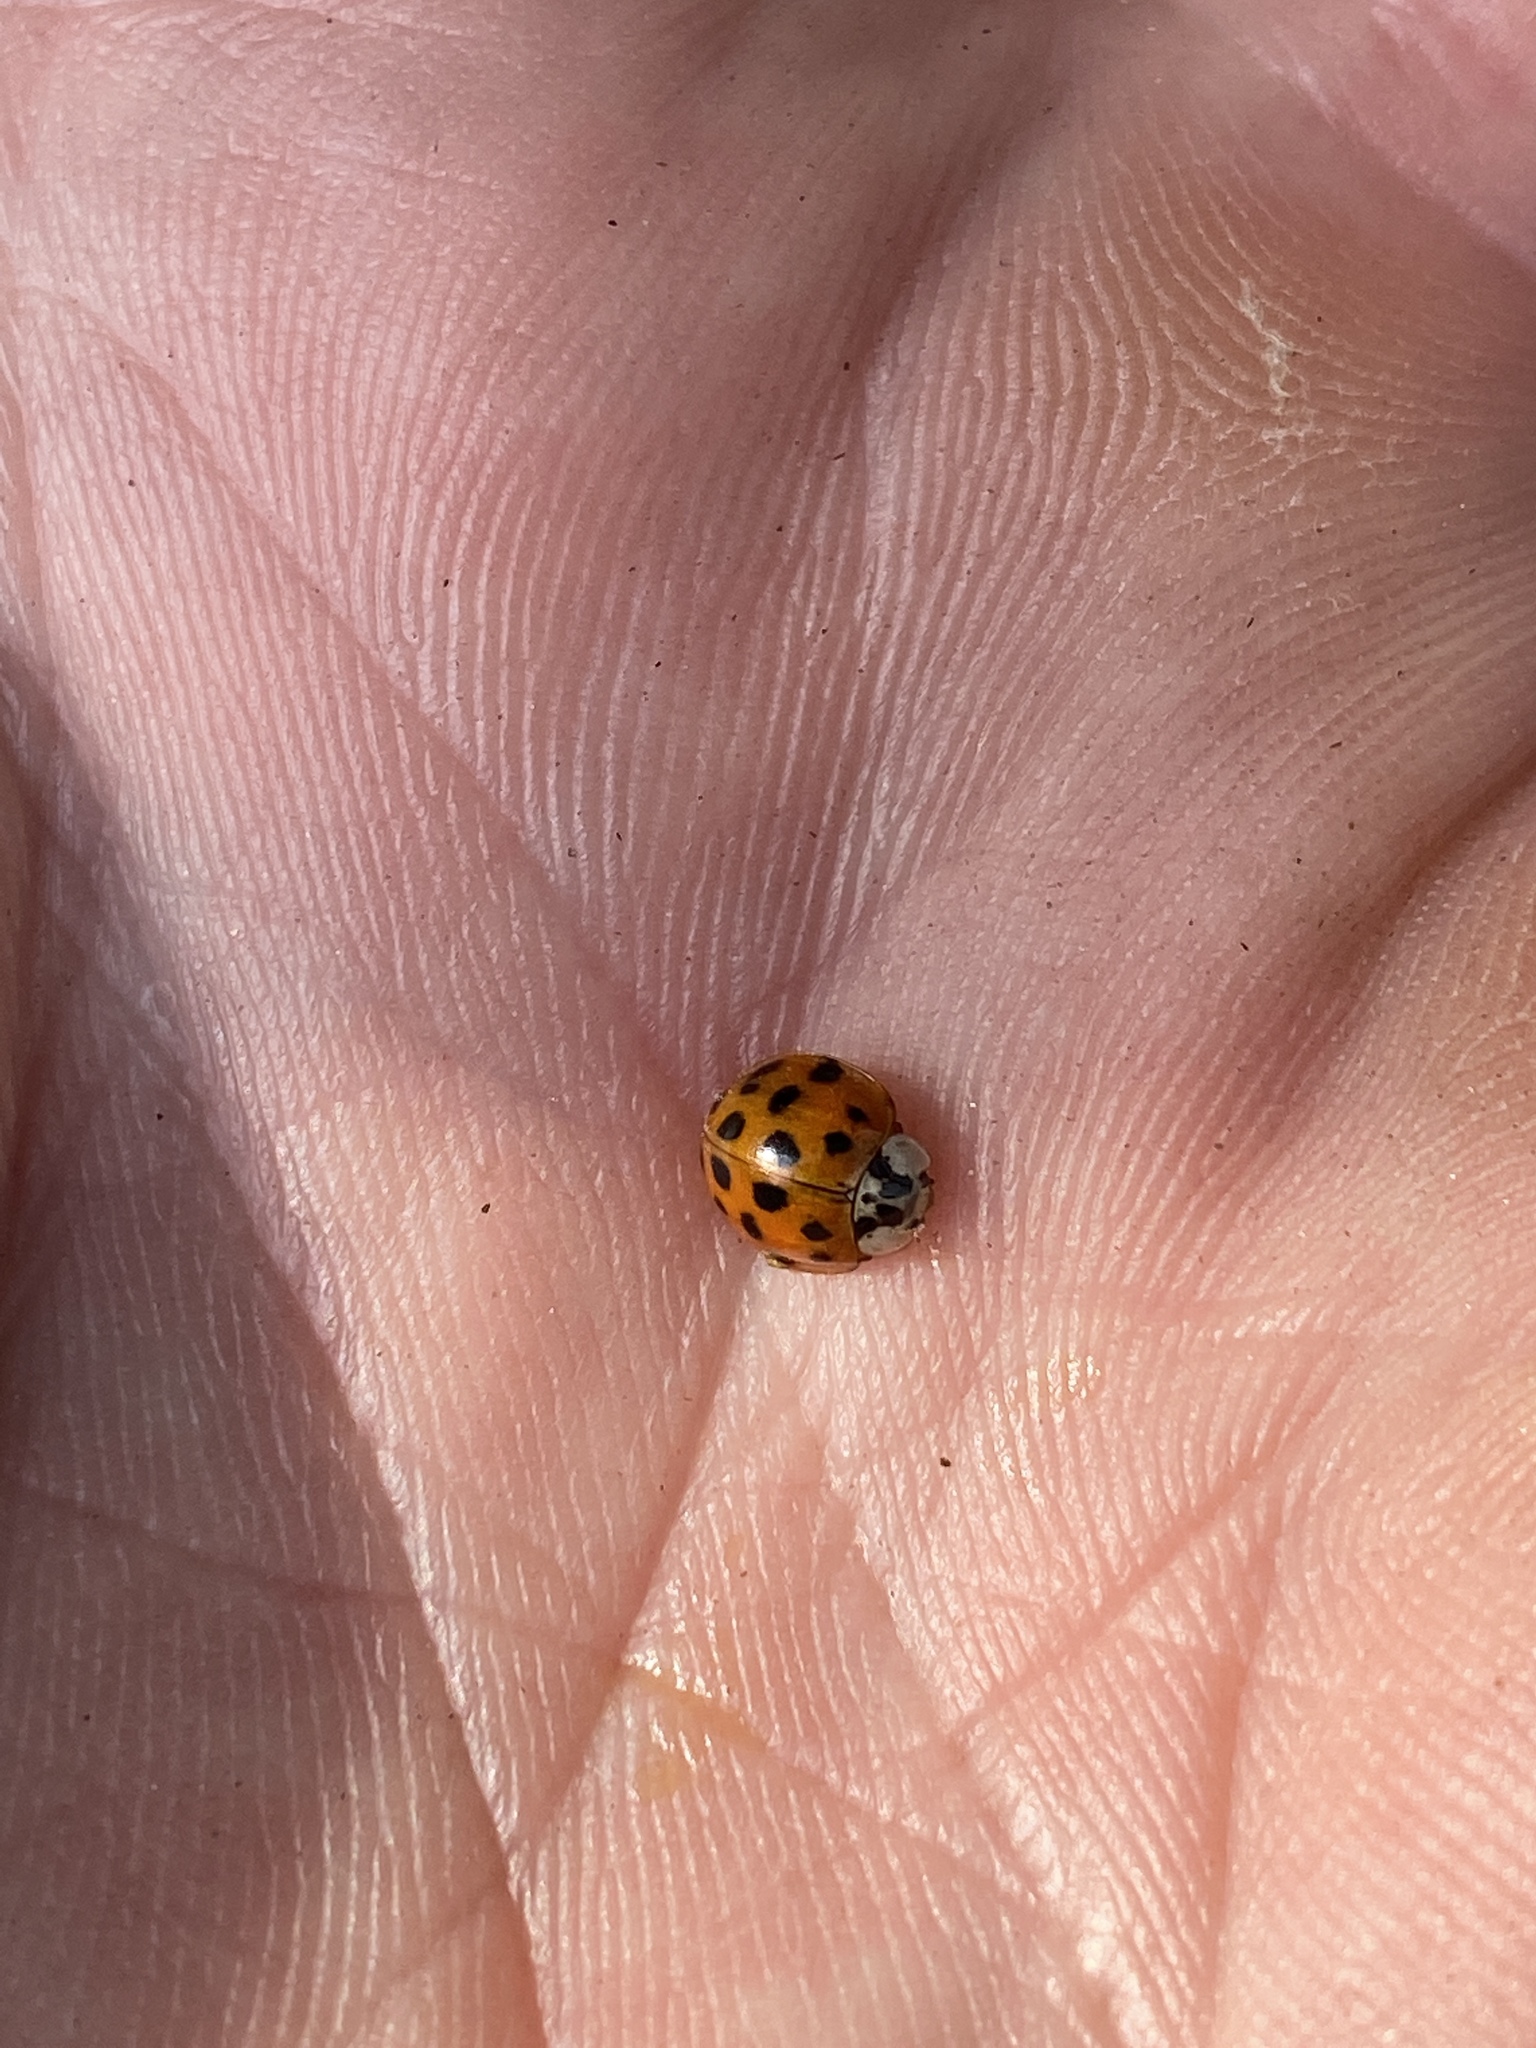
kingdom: Animalia
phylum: Arthropoda
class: Insecta
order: Coleoptera
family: Coccinellidae
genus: Harmonia
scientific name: Harmonia axyridis
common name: Harlequin ladybird
